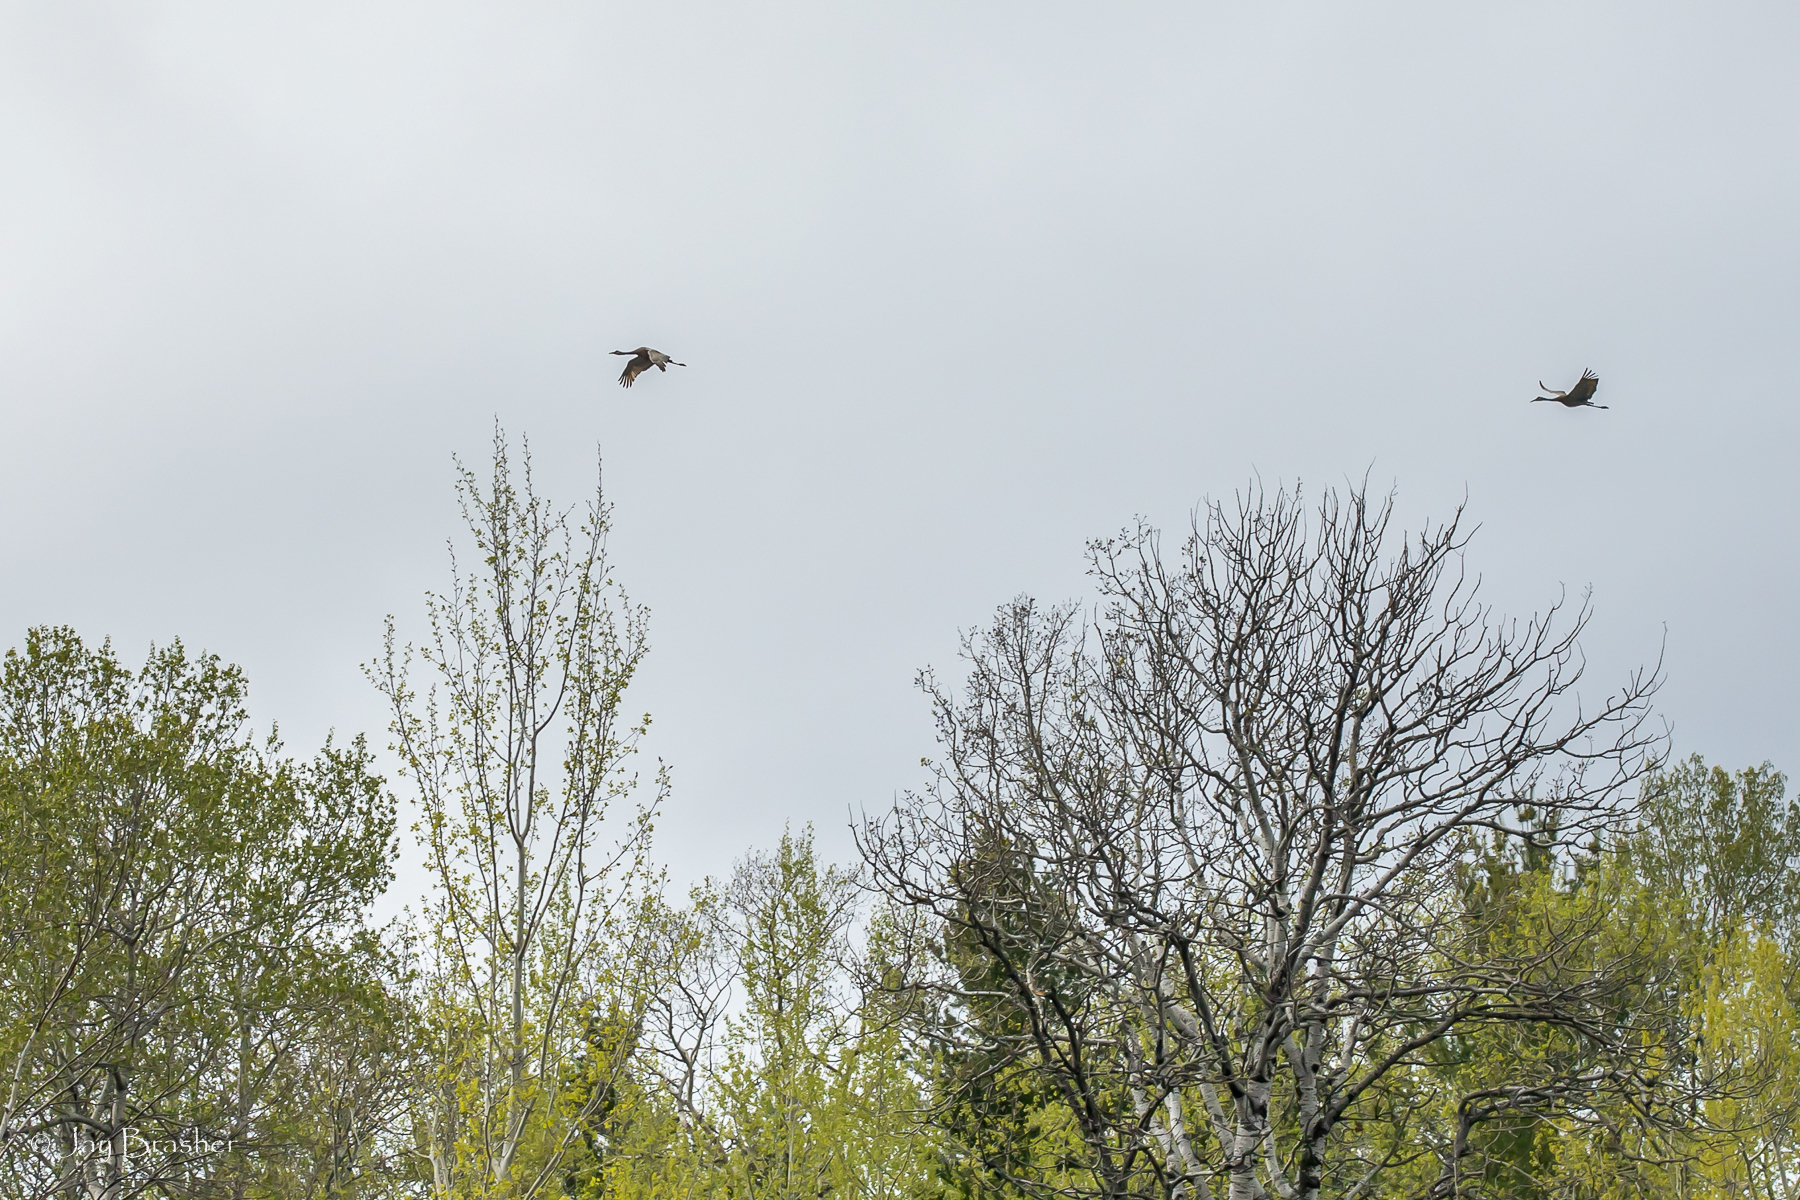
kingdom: Animalia
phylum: Chordata
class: Aves
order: Gruiformes
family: Gruidae
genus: Grus
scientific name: Grus canadensis
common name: Sandhill crane
